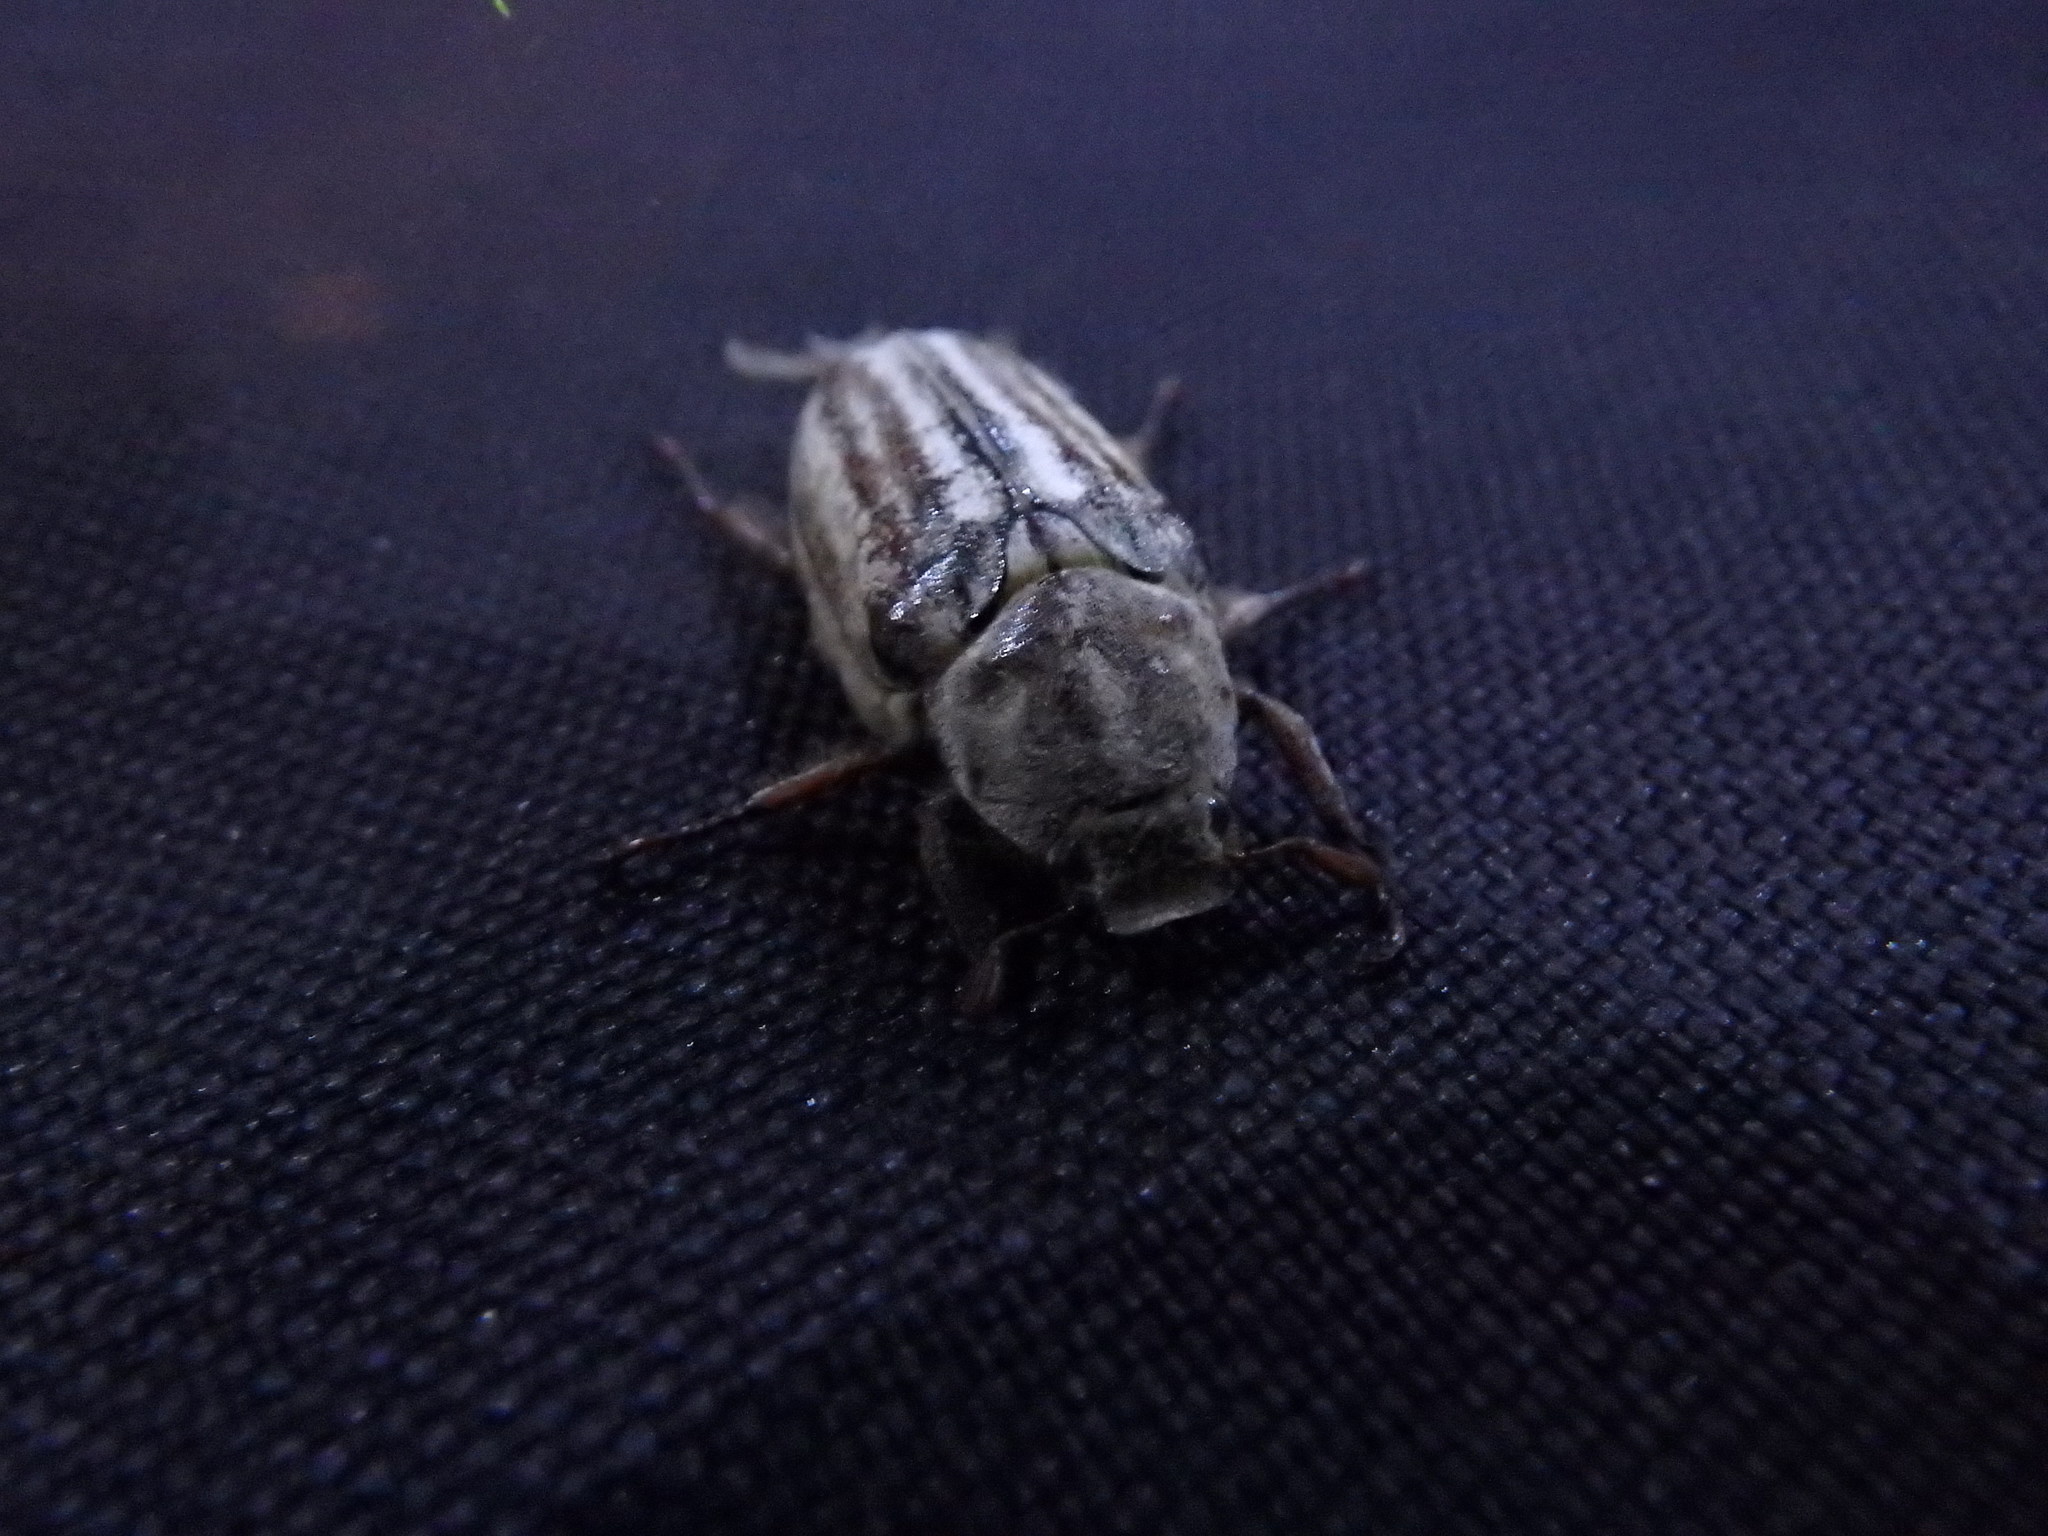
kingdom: Animalia
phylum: Arthropoda
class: Insecta
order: Coleoptera
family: Scarabaeidae
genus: Anoxia
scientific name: Anoxia australis
